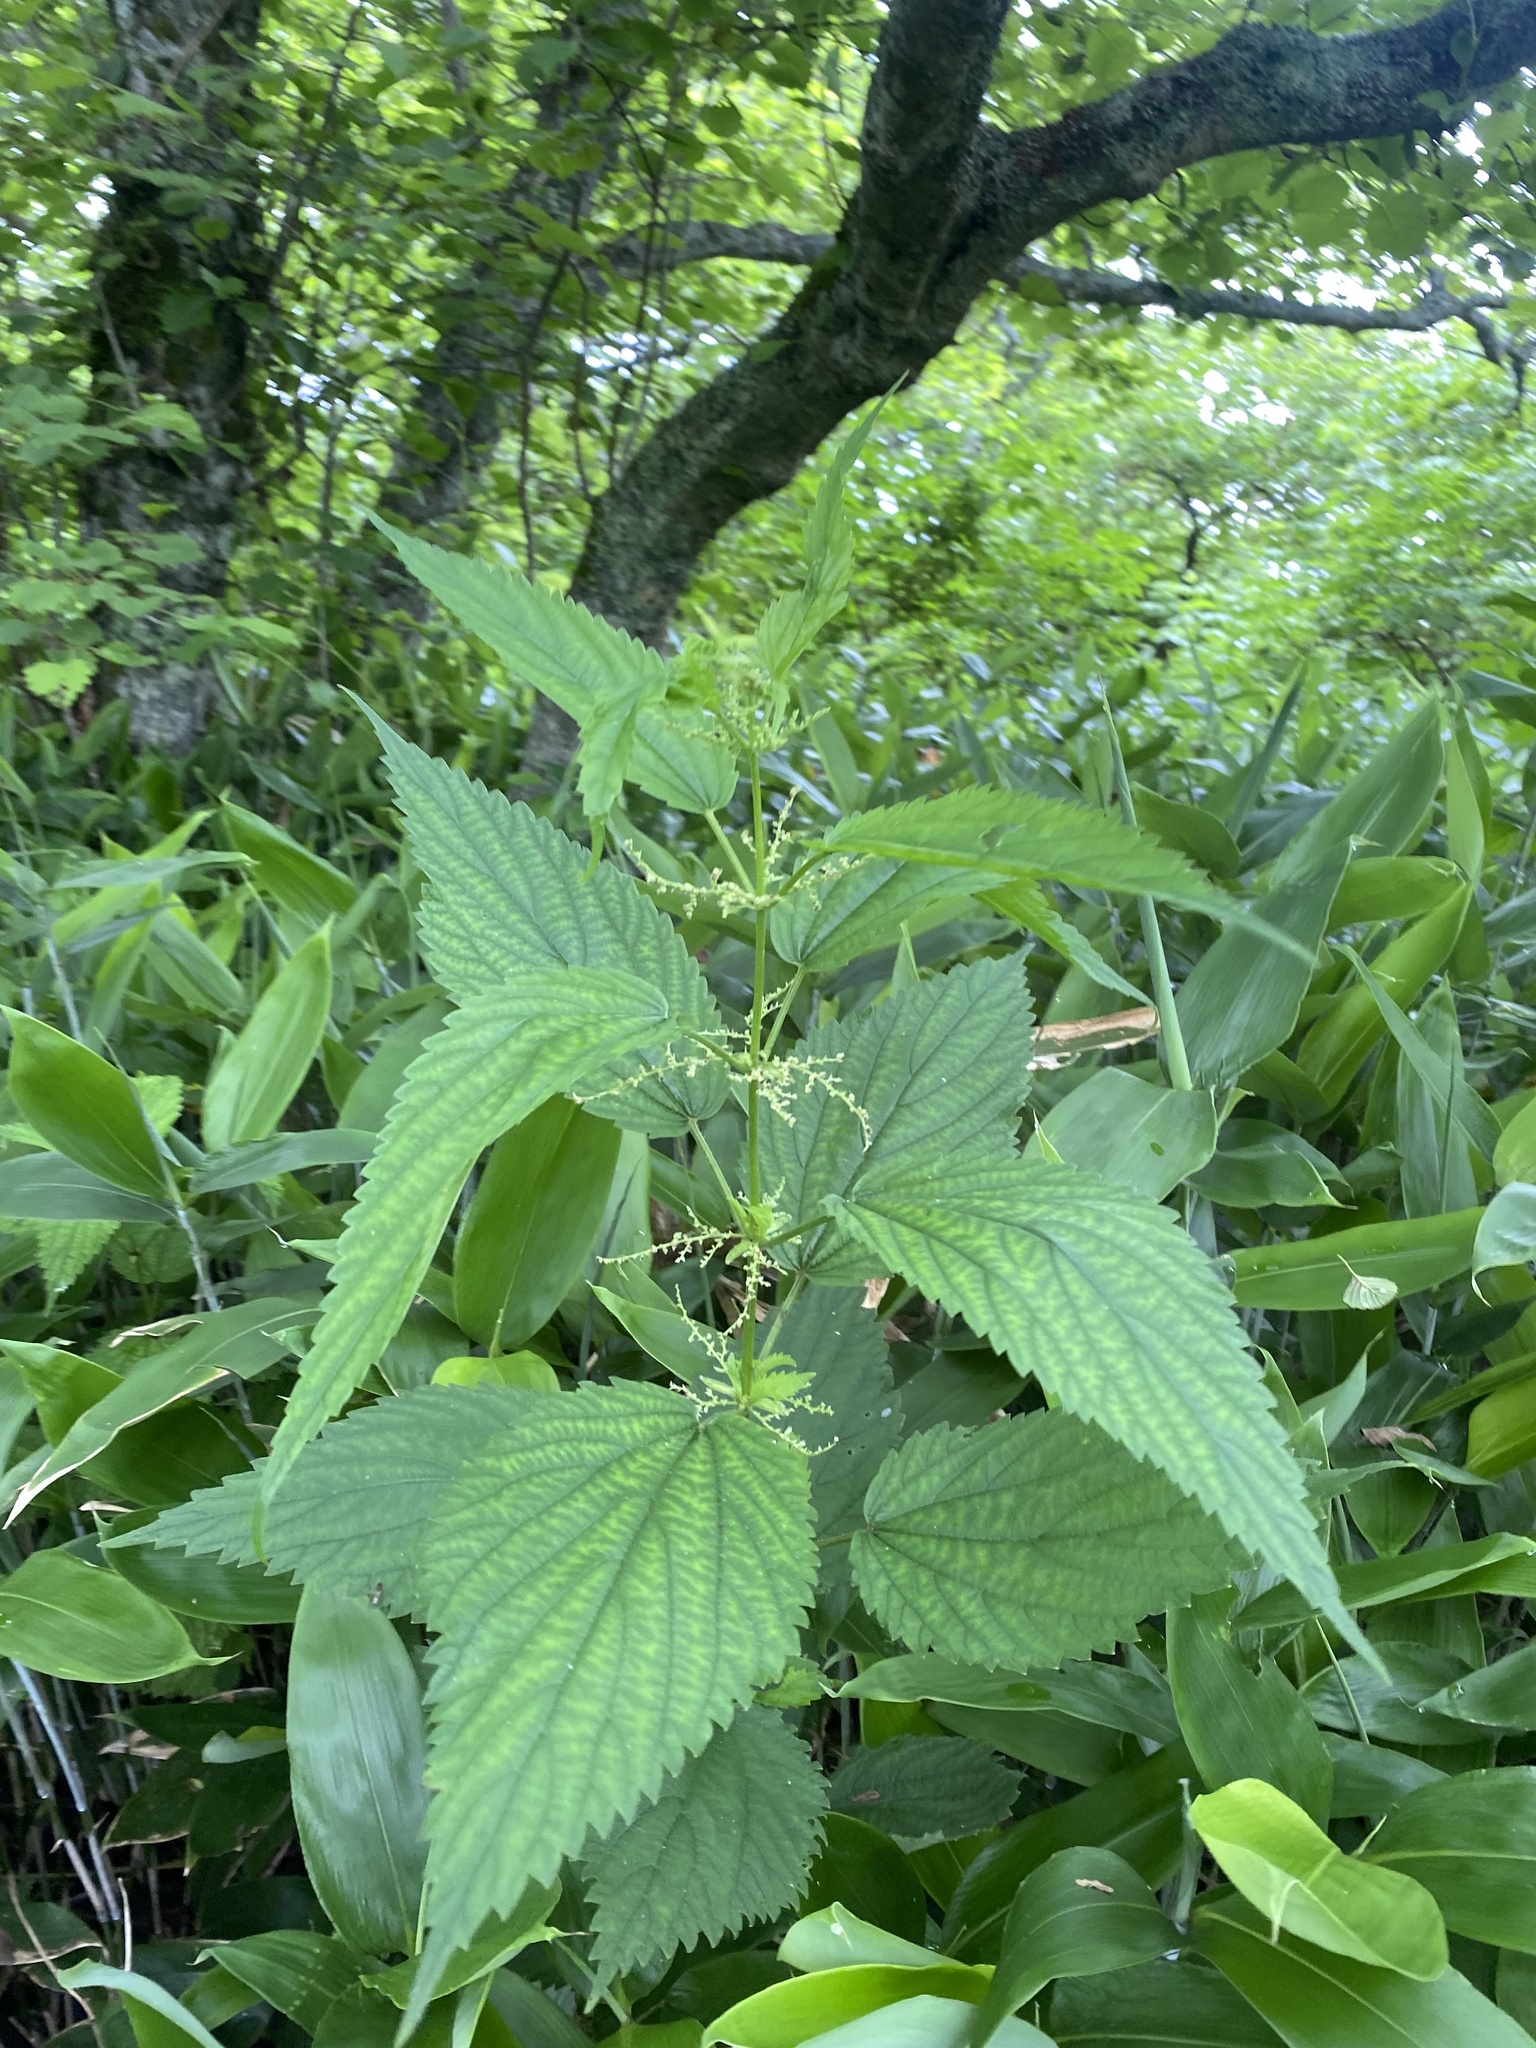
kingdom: Plantae
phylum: Tracheophyta
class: Magnoliopsida
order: Rosales
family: Urticaceae
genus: Urtica
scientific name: Urtica platyphylla
